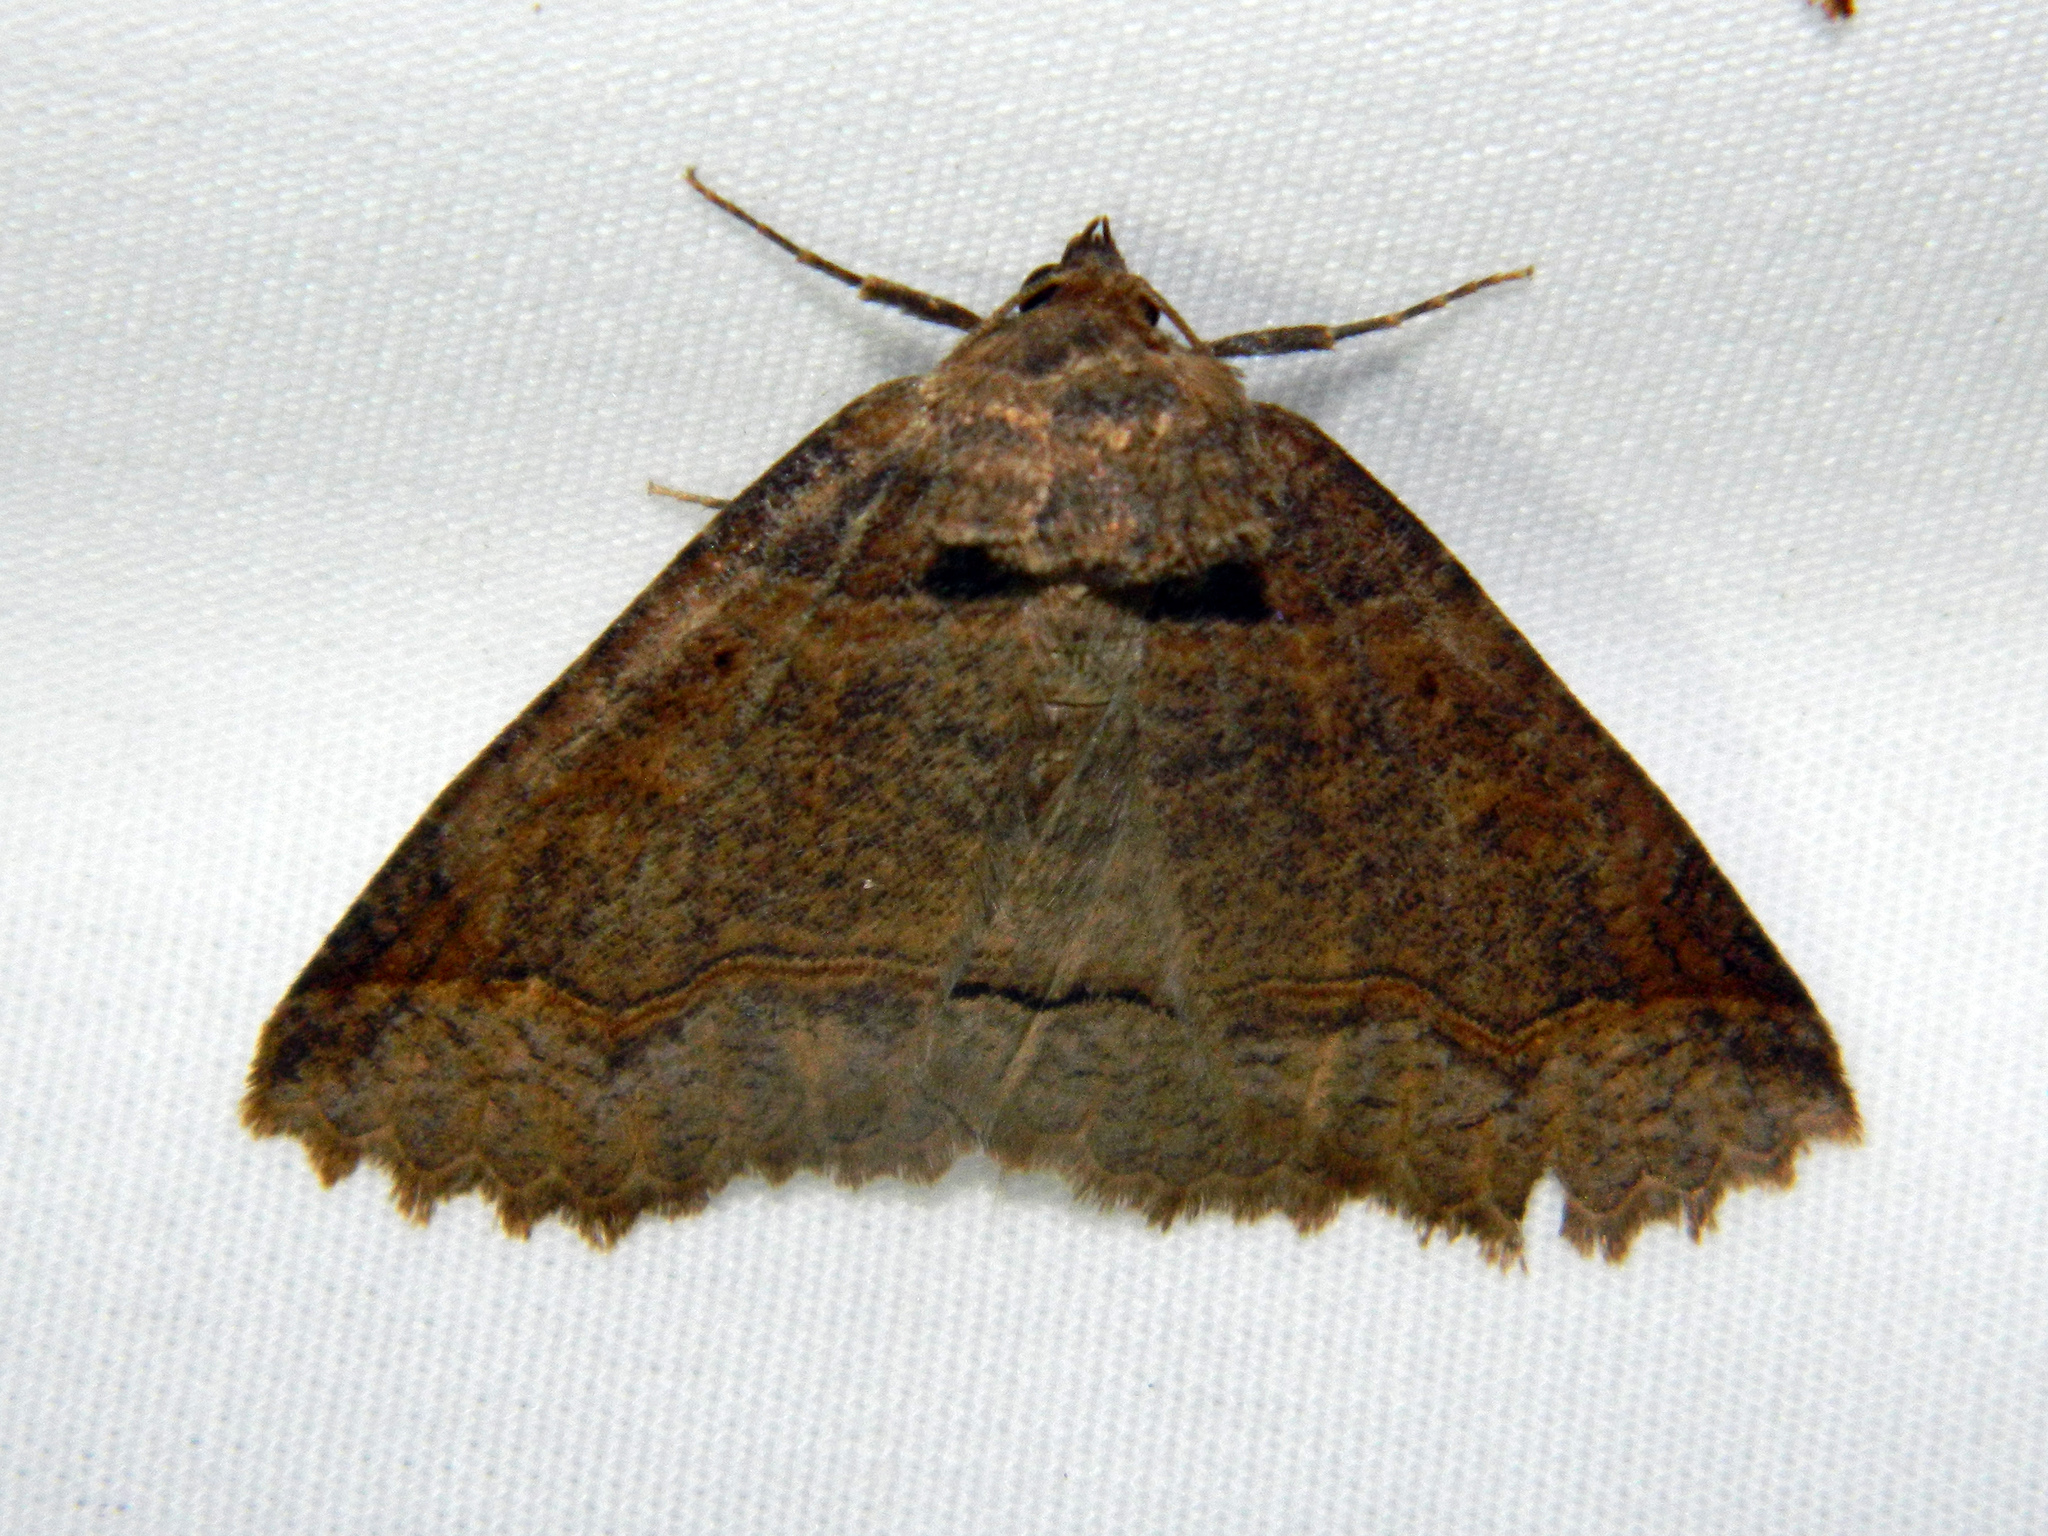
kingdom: Animalia
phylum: Arthropoda
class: Insecta
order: Lepidoptera
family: Erebidae
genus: Zale
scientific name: Zale unilineata
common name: One-lined zale moth
